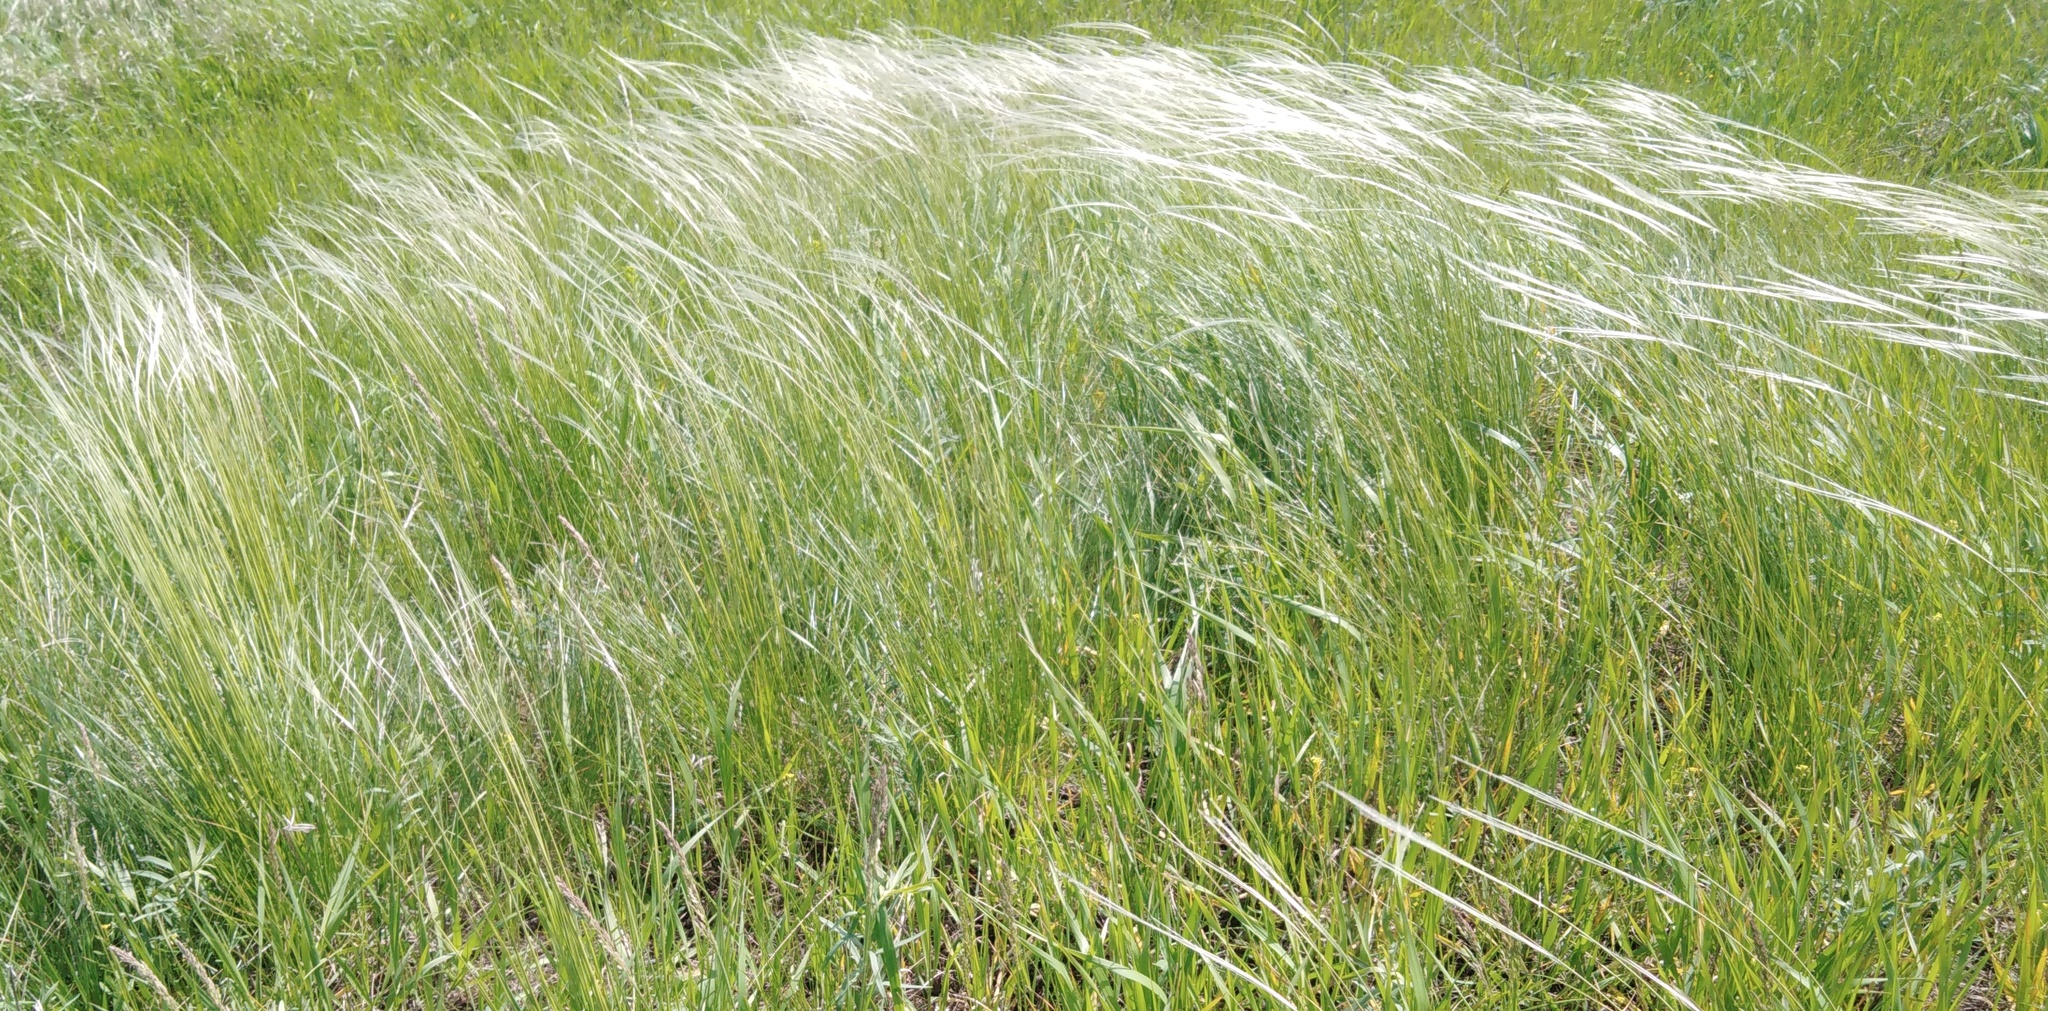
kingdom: Plantae
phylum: Tracheophyta
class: Liliopsida
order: Poales
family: Poaceae
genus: Stipa
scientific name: Stipa pennata
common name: European feather grass
